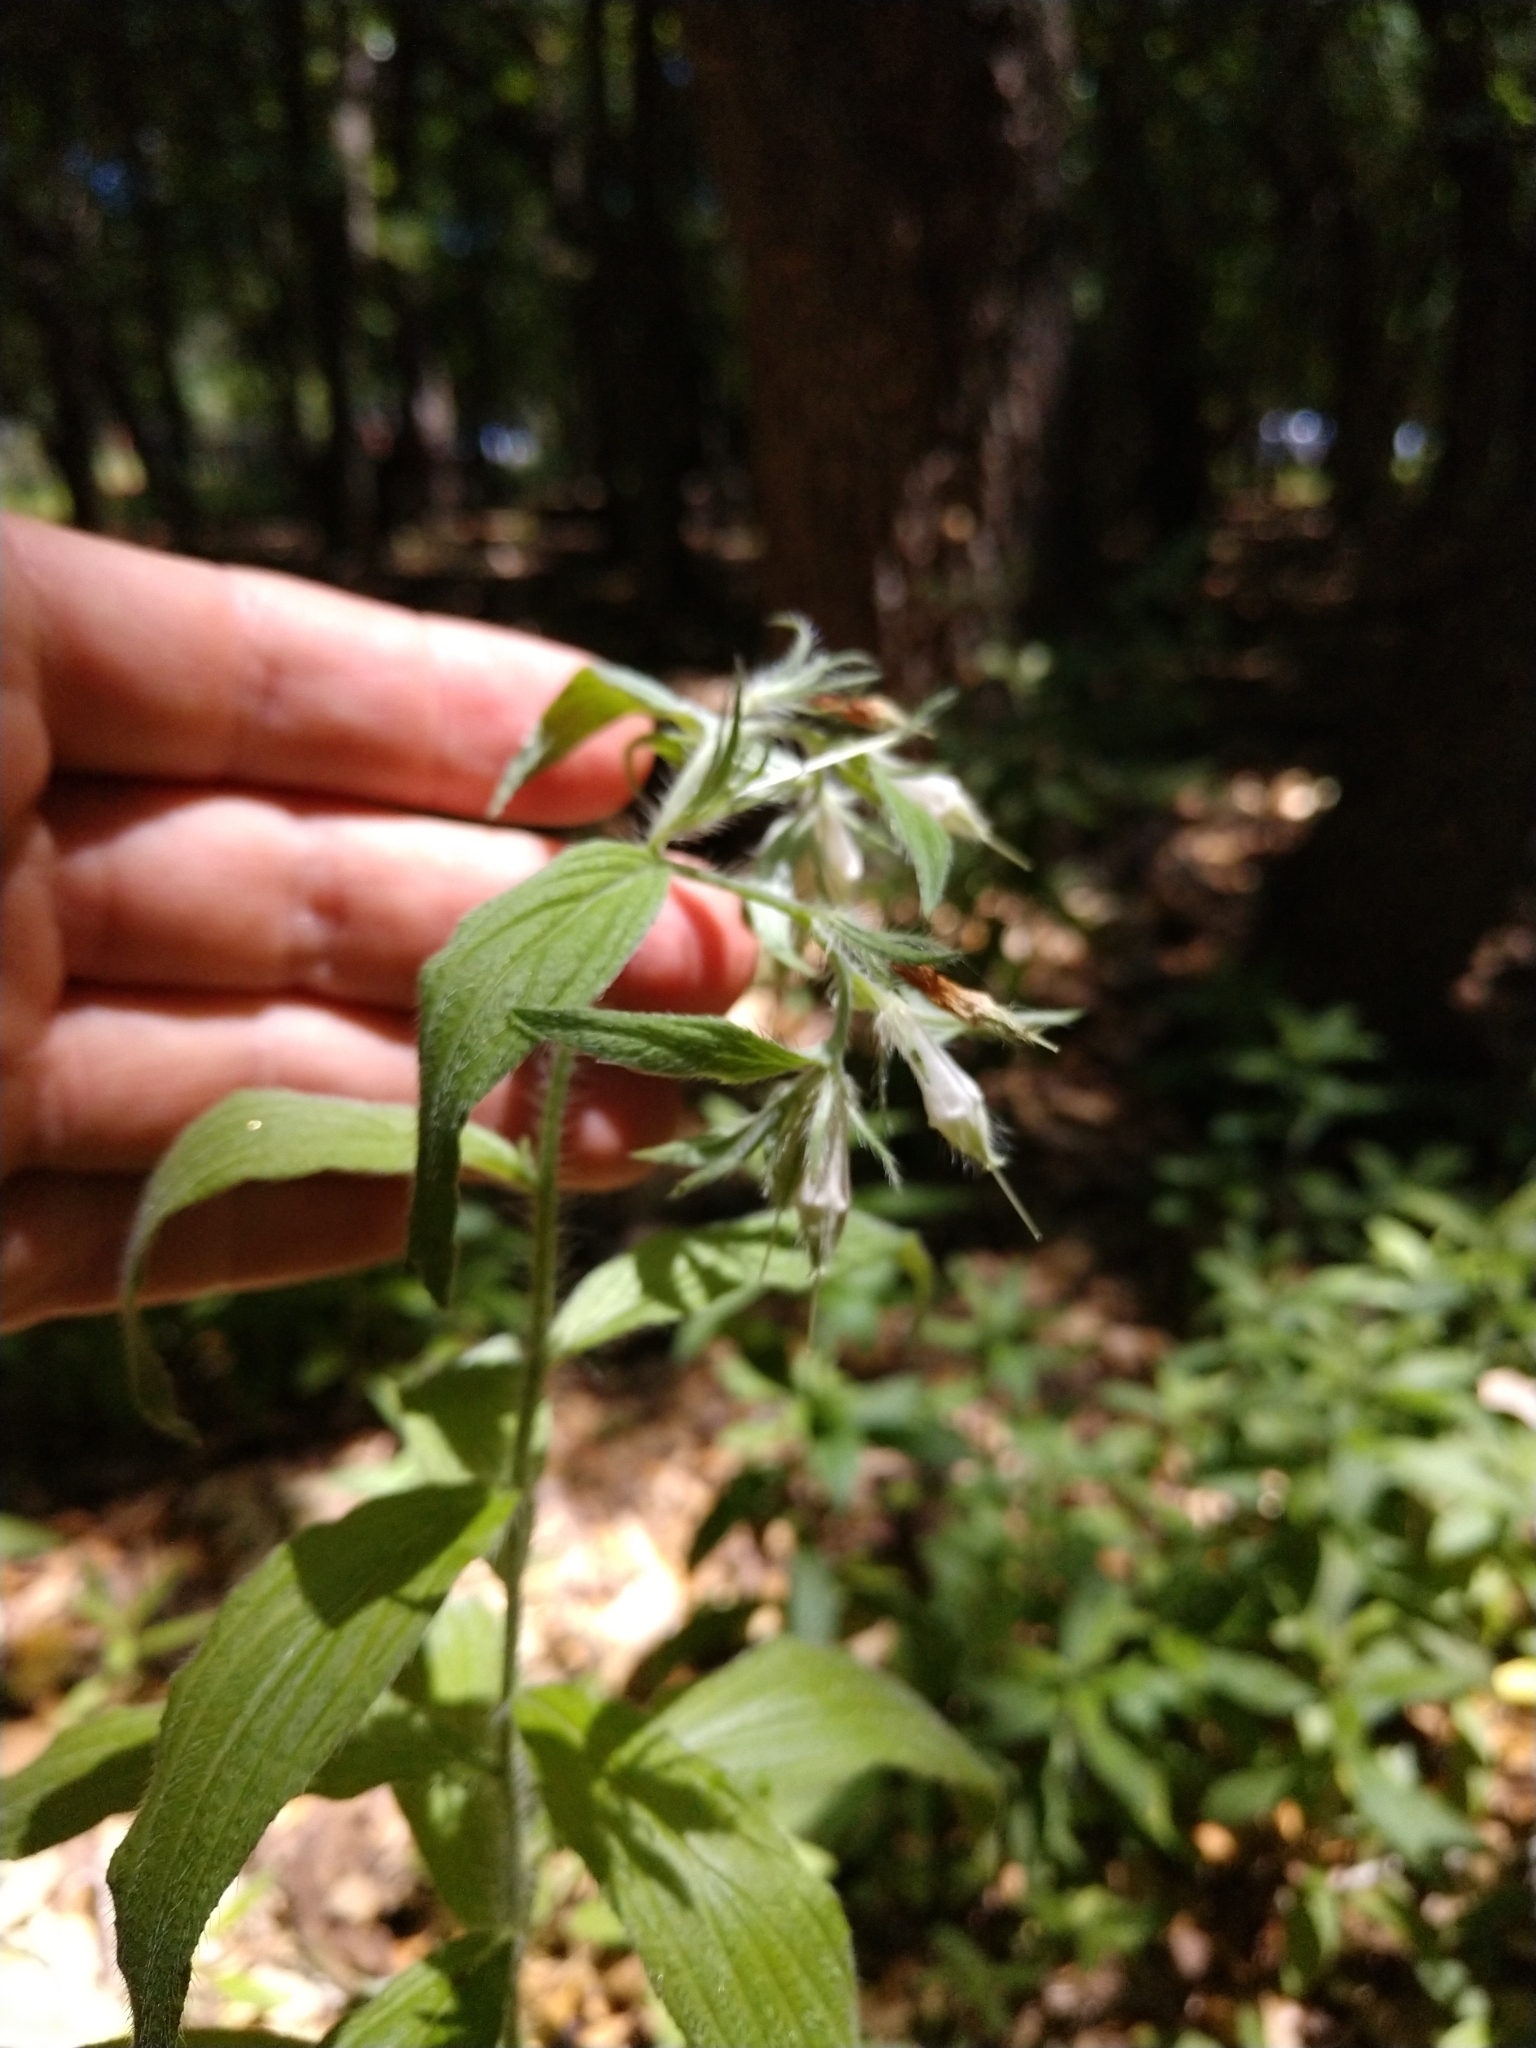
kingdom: Plantae
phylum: Tracheophyta
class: Magnoliopsida
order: Boraginales
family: Boraginaceae
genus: Lithospermum
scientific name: Lithospermum caroliniense
